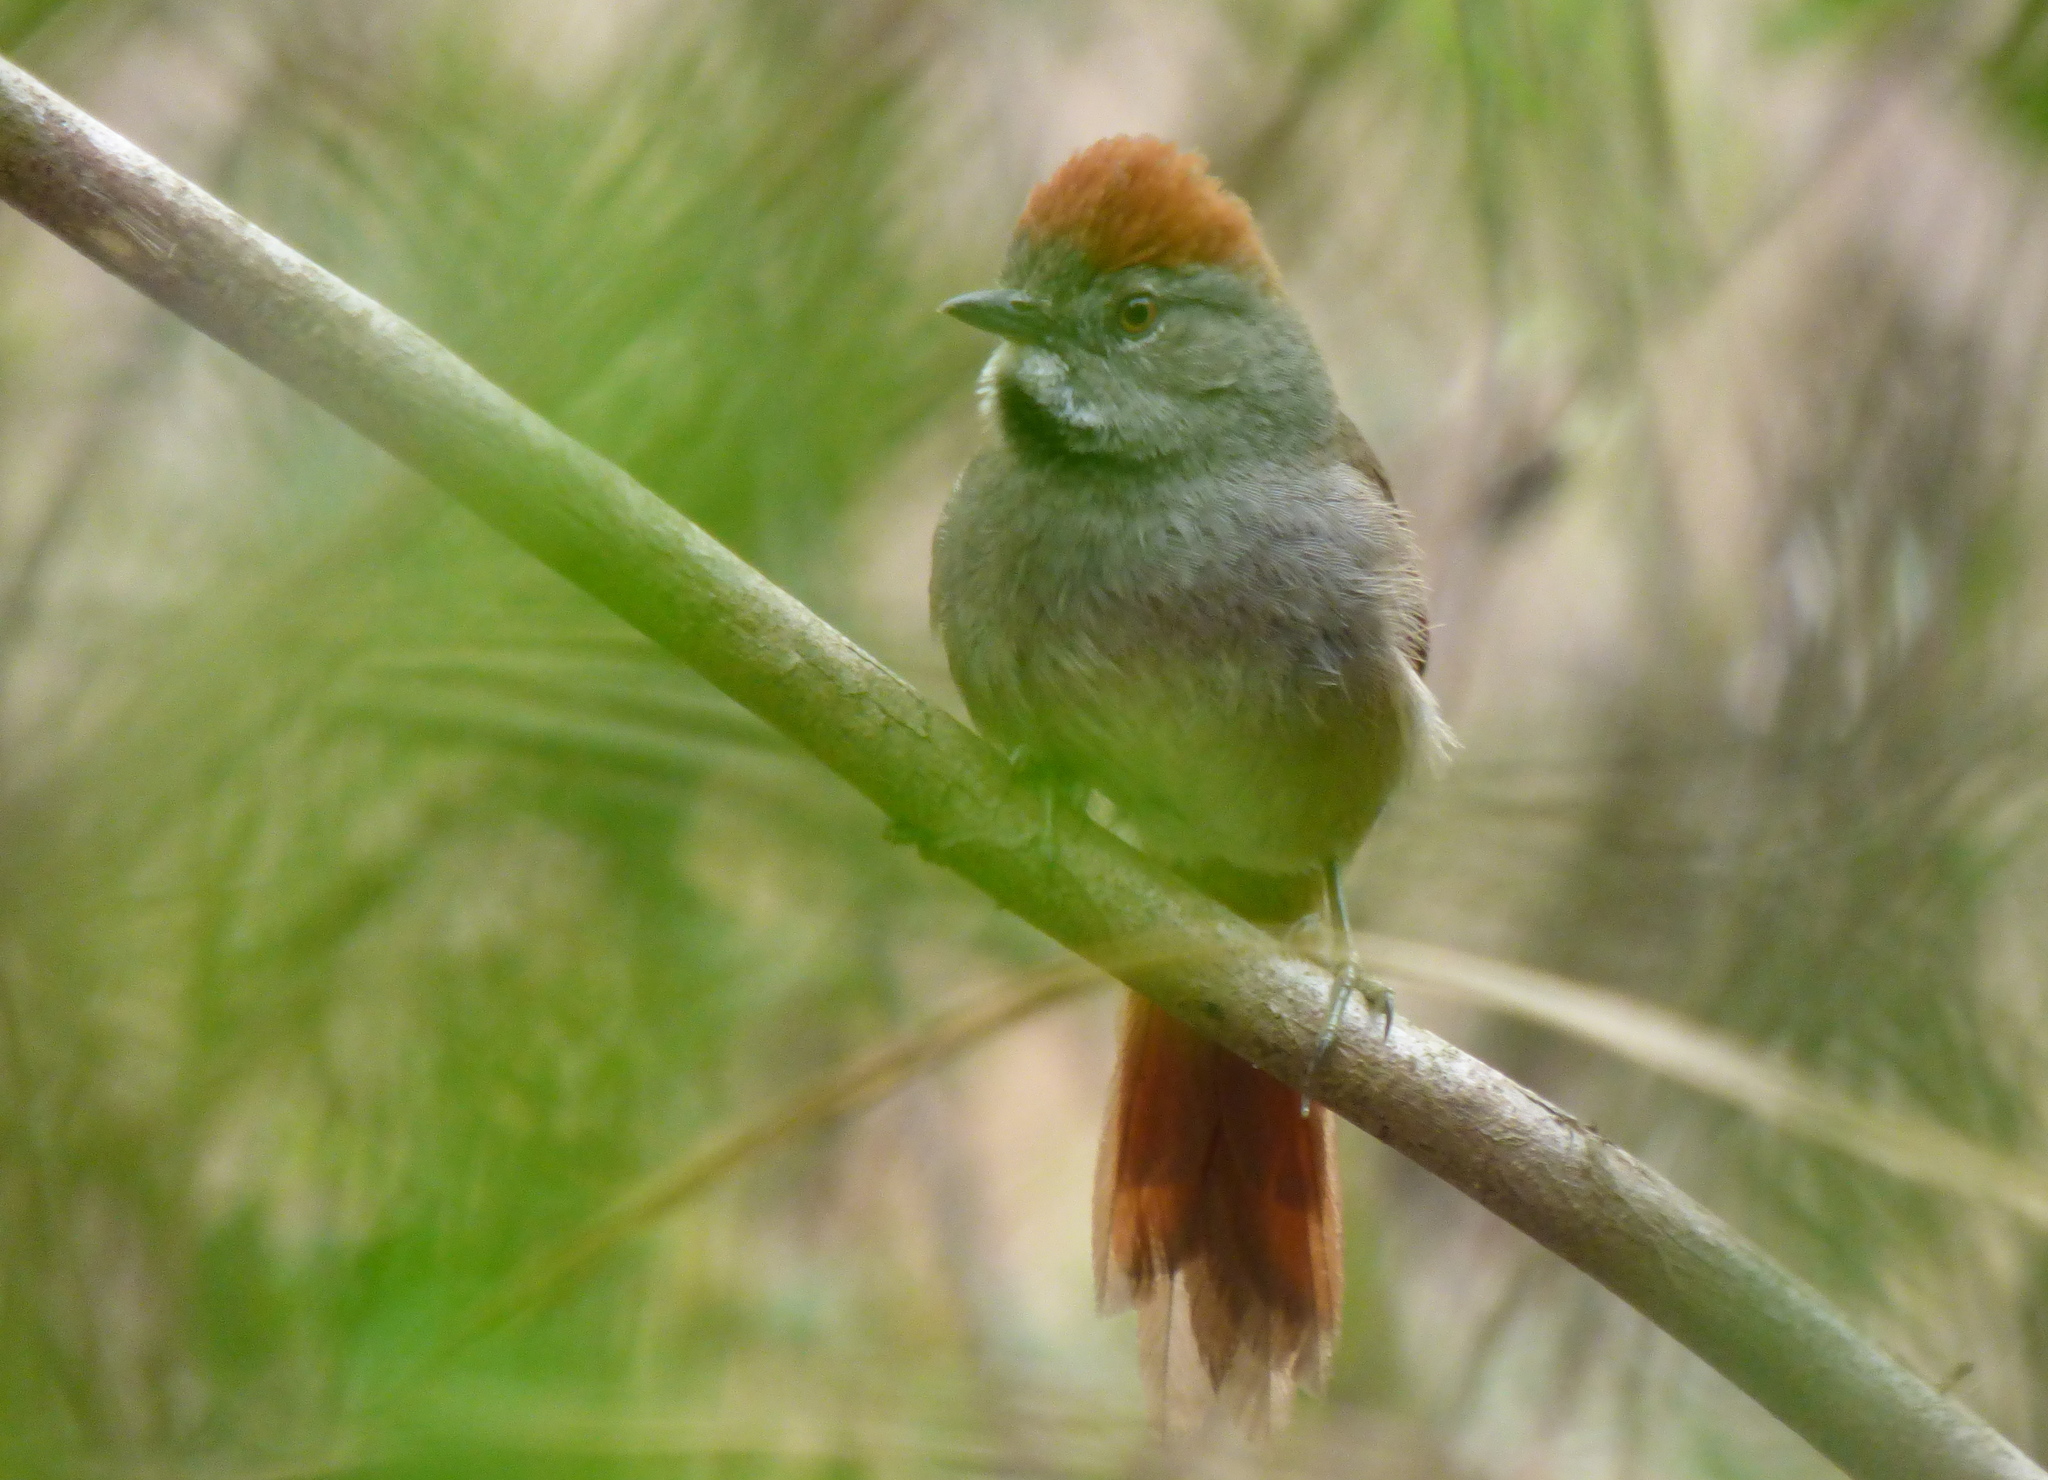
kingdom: Animalia
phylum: Chordata
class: Aves
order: Passeriformes
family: Furnariidae
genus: Synallaxis
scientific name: Synallaxis frontalis
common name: Sooty-fronted spinetail
